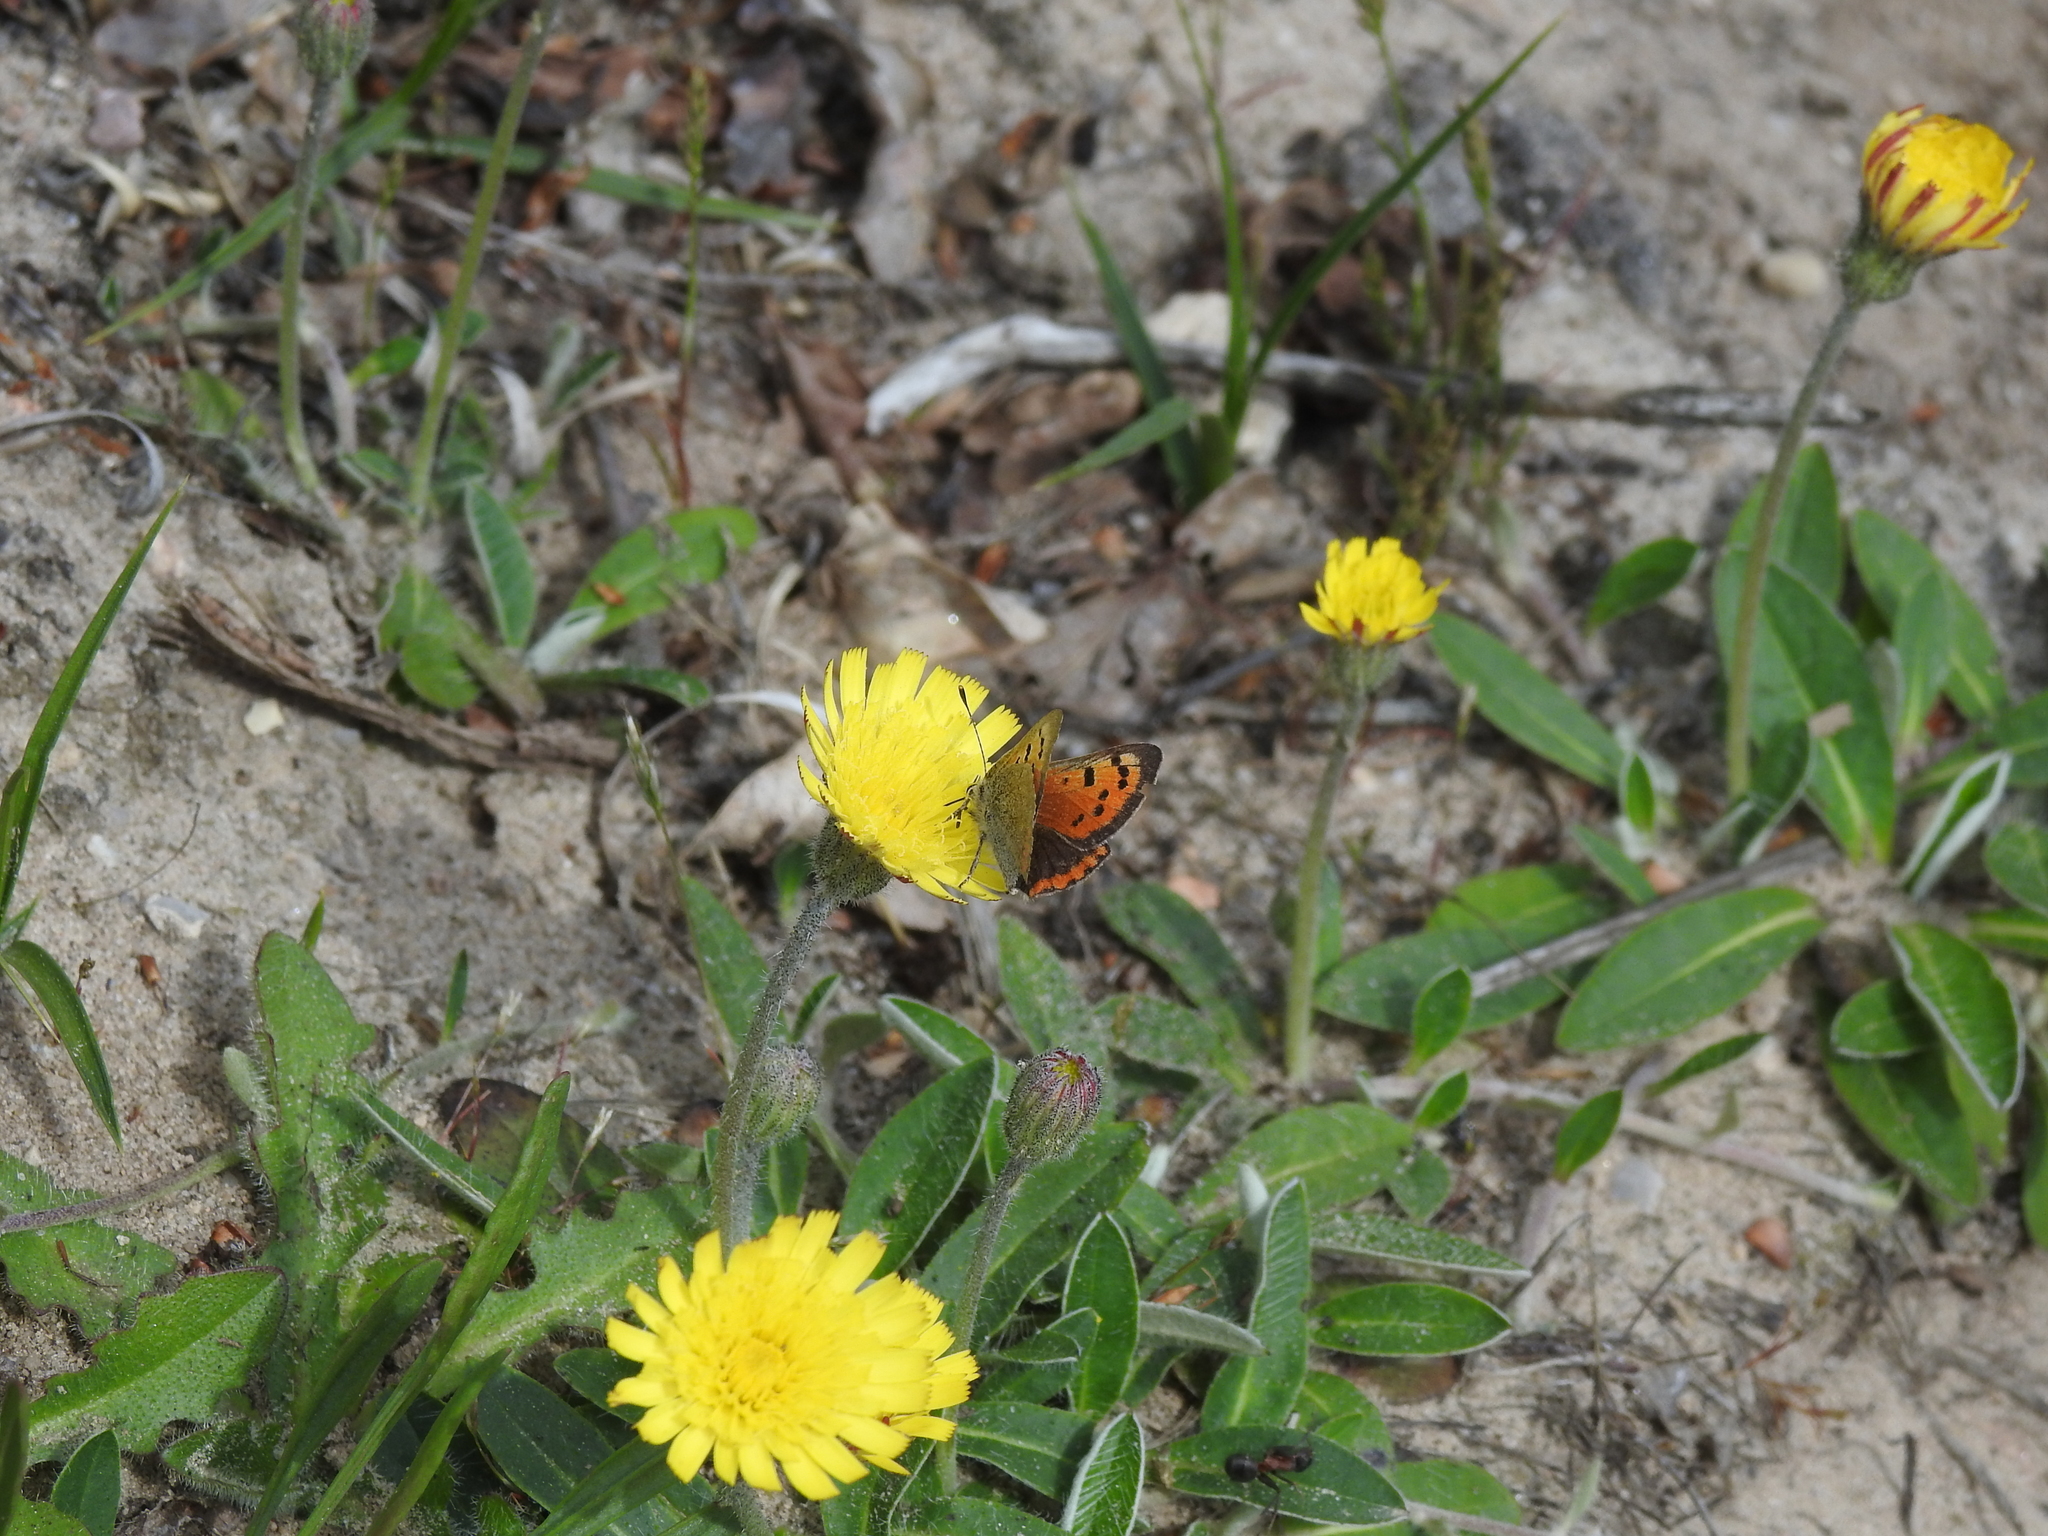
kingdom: Animalia
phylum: Arthropoda
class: Insecta
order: Lepidoptera
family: Lycaenidae
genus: Lycaena
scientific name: Lycaena phlaeas
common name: Small copper
